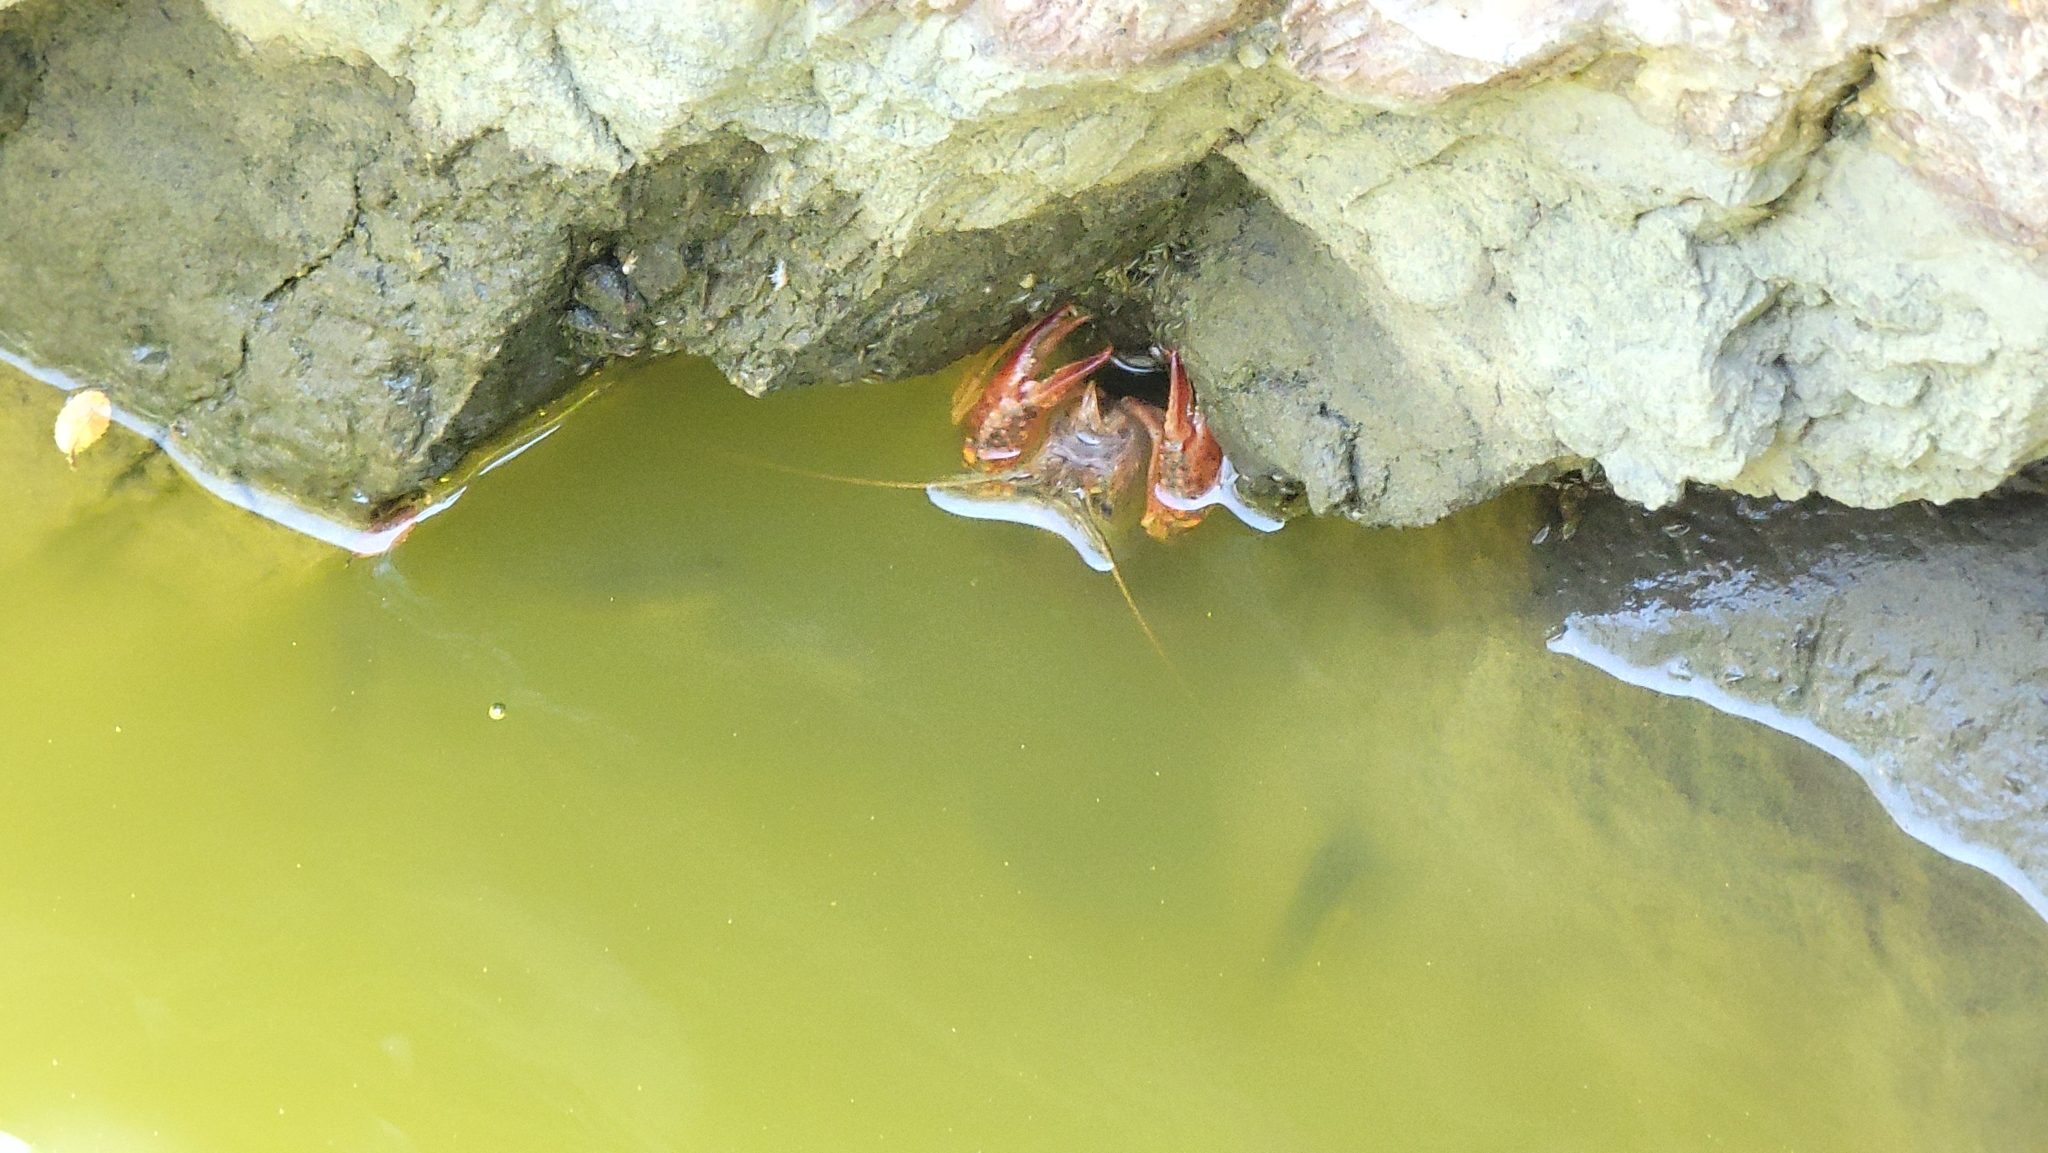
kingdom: Animalia
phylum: Arthropoda
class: Malacostraca
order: Decapoda
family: Cambaridae
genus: Procambarus
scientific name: Procambarus clarkii
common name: Red swamp crayfish
